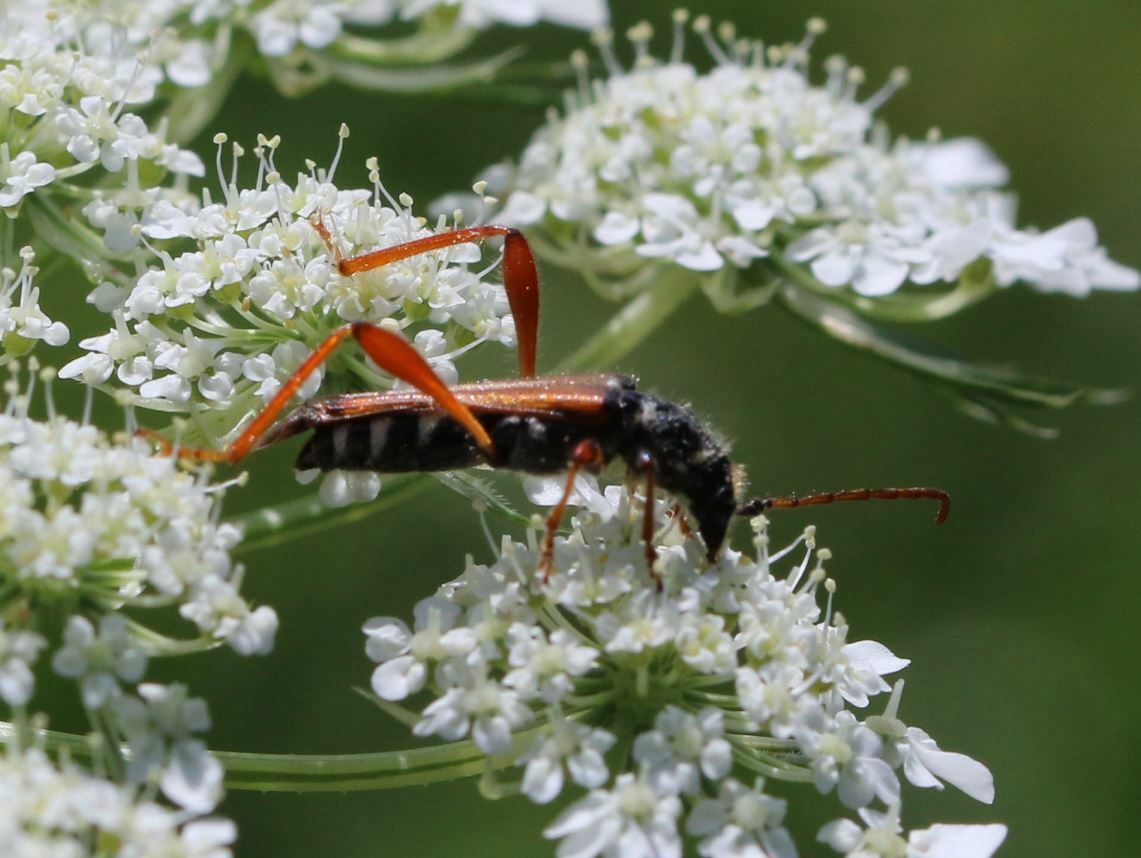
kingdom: Animalia
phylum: Arthropoda
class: Insecta
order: Coleoptera
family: Cerambycidae
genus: Stenopterus
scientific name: Stenopterus rufus
